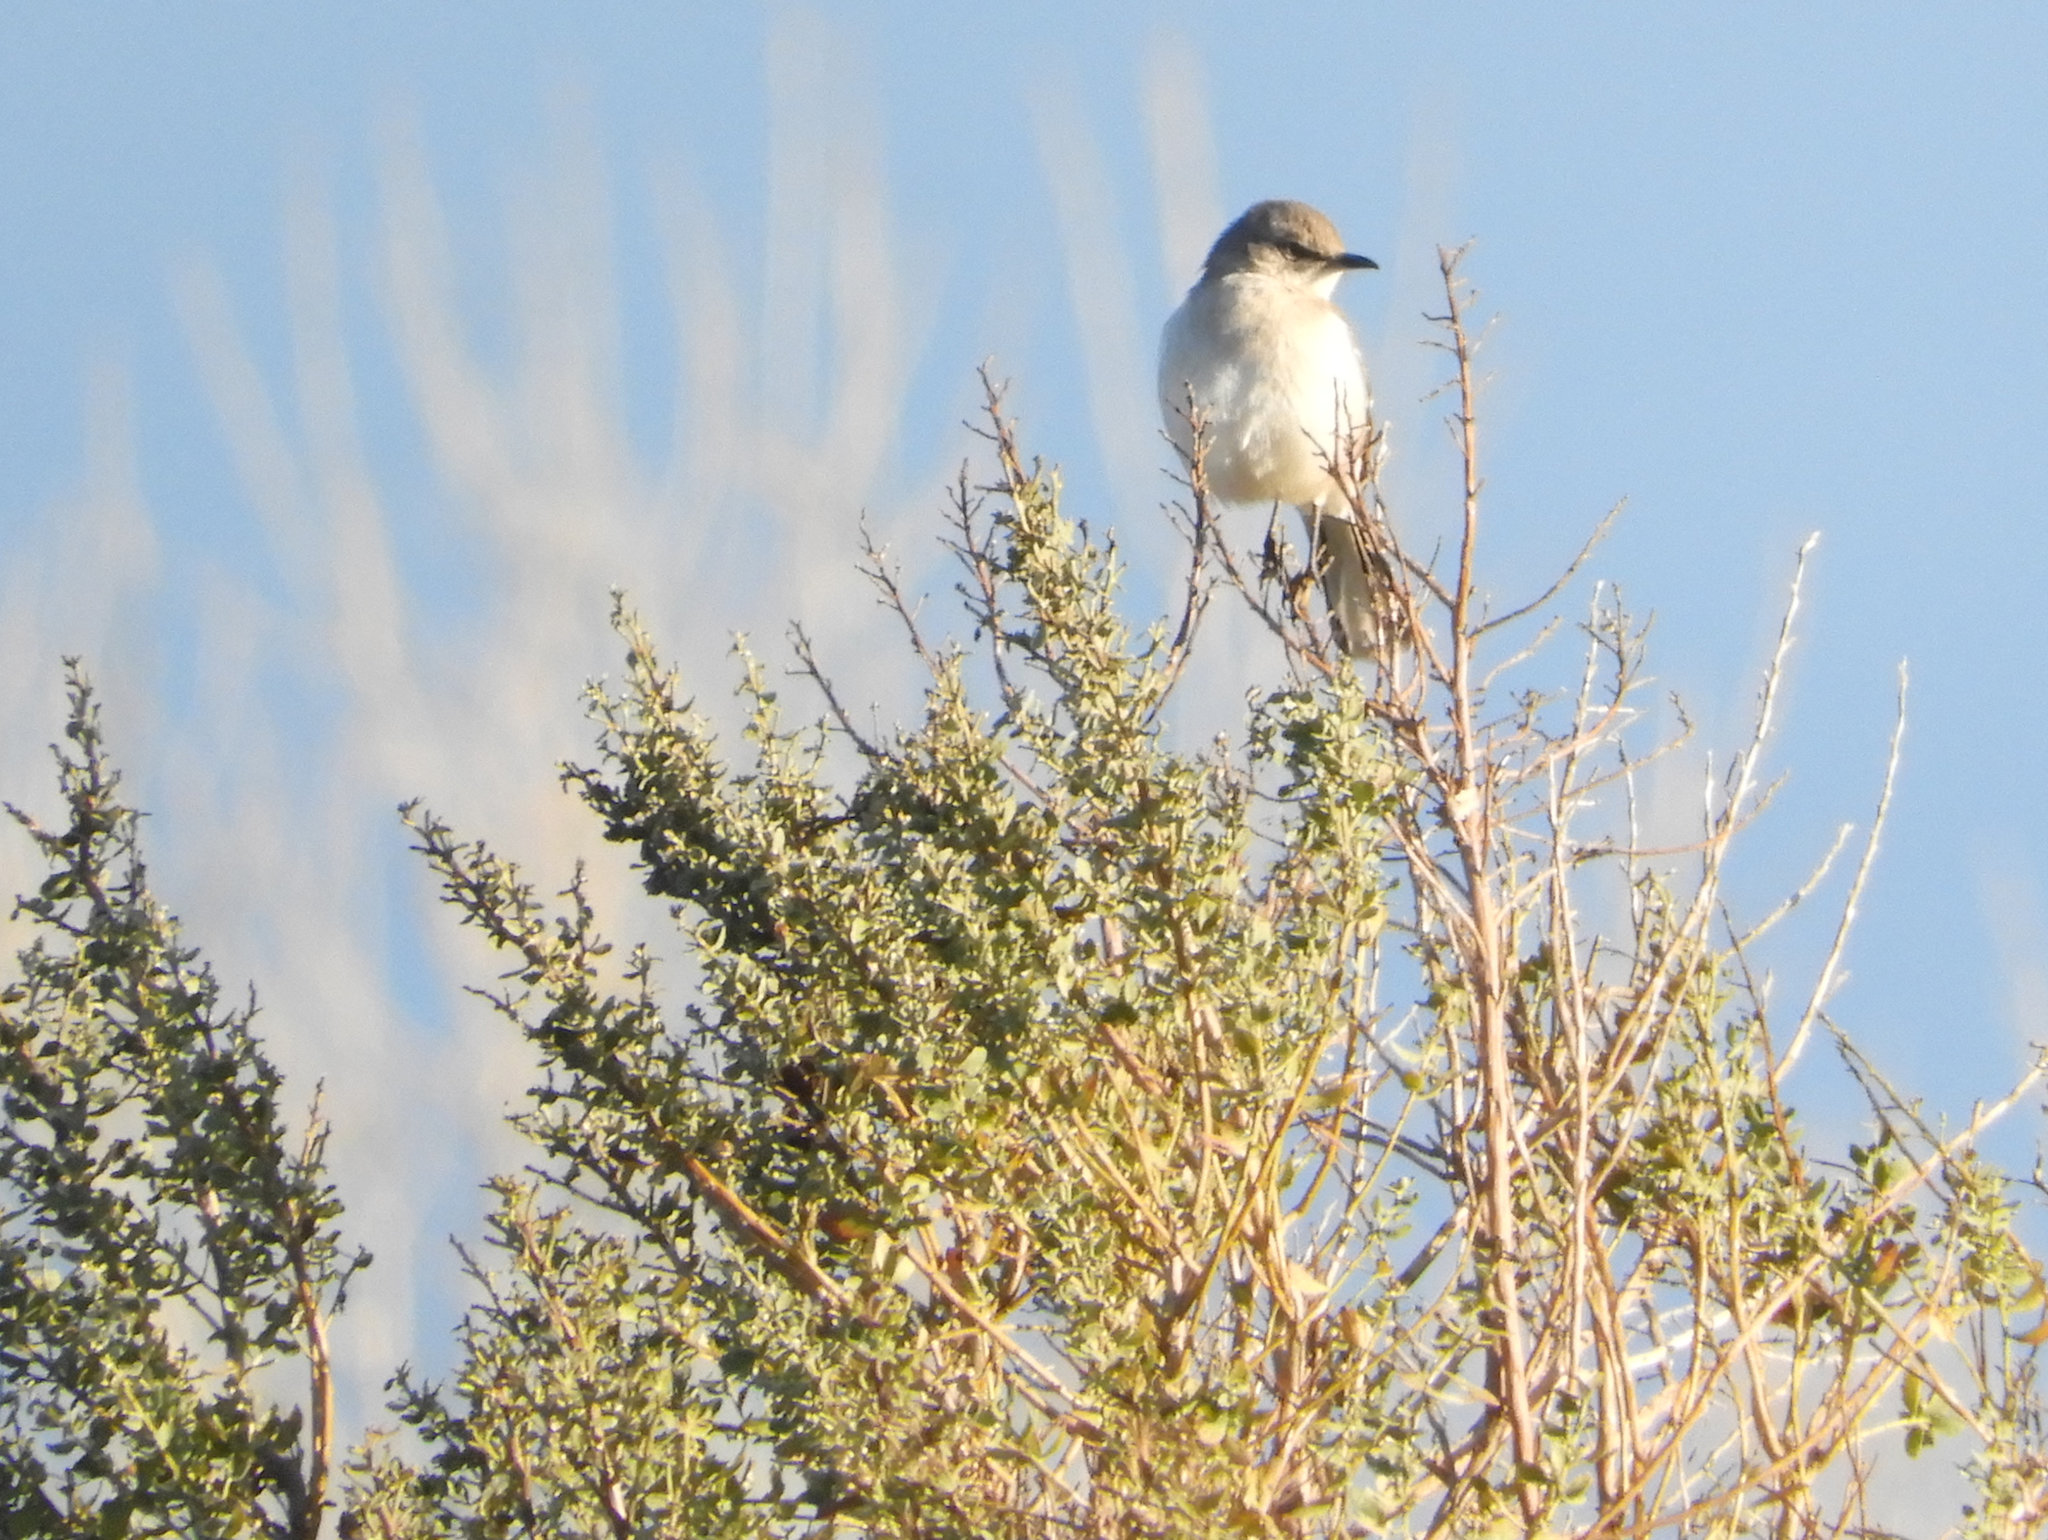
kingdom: Animalia
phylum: Chordata
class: Aves
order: Passeriformes
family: Mimidae
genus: Mimus
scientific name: Mimus polyglottos
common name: Northern mockingbird
